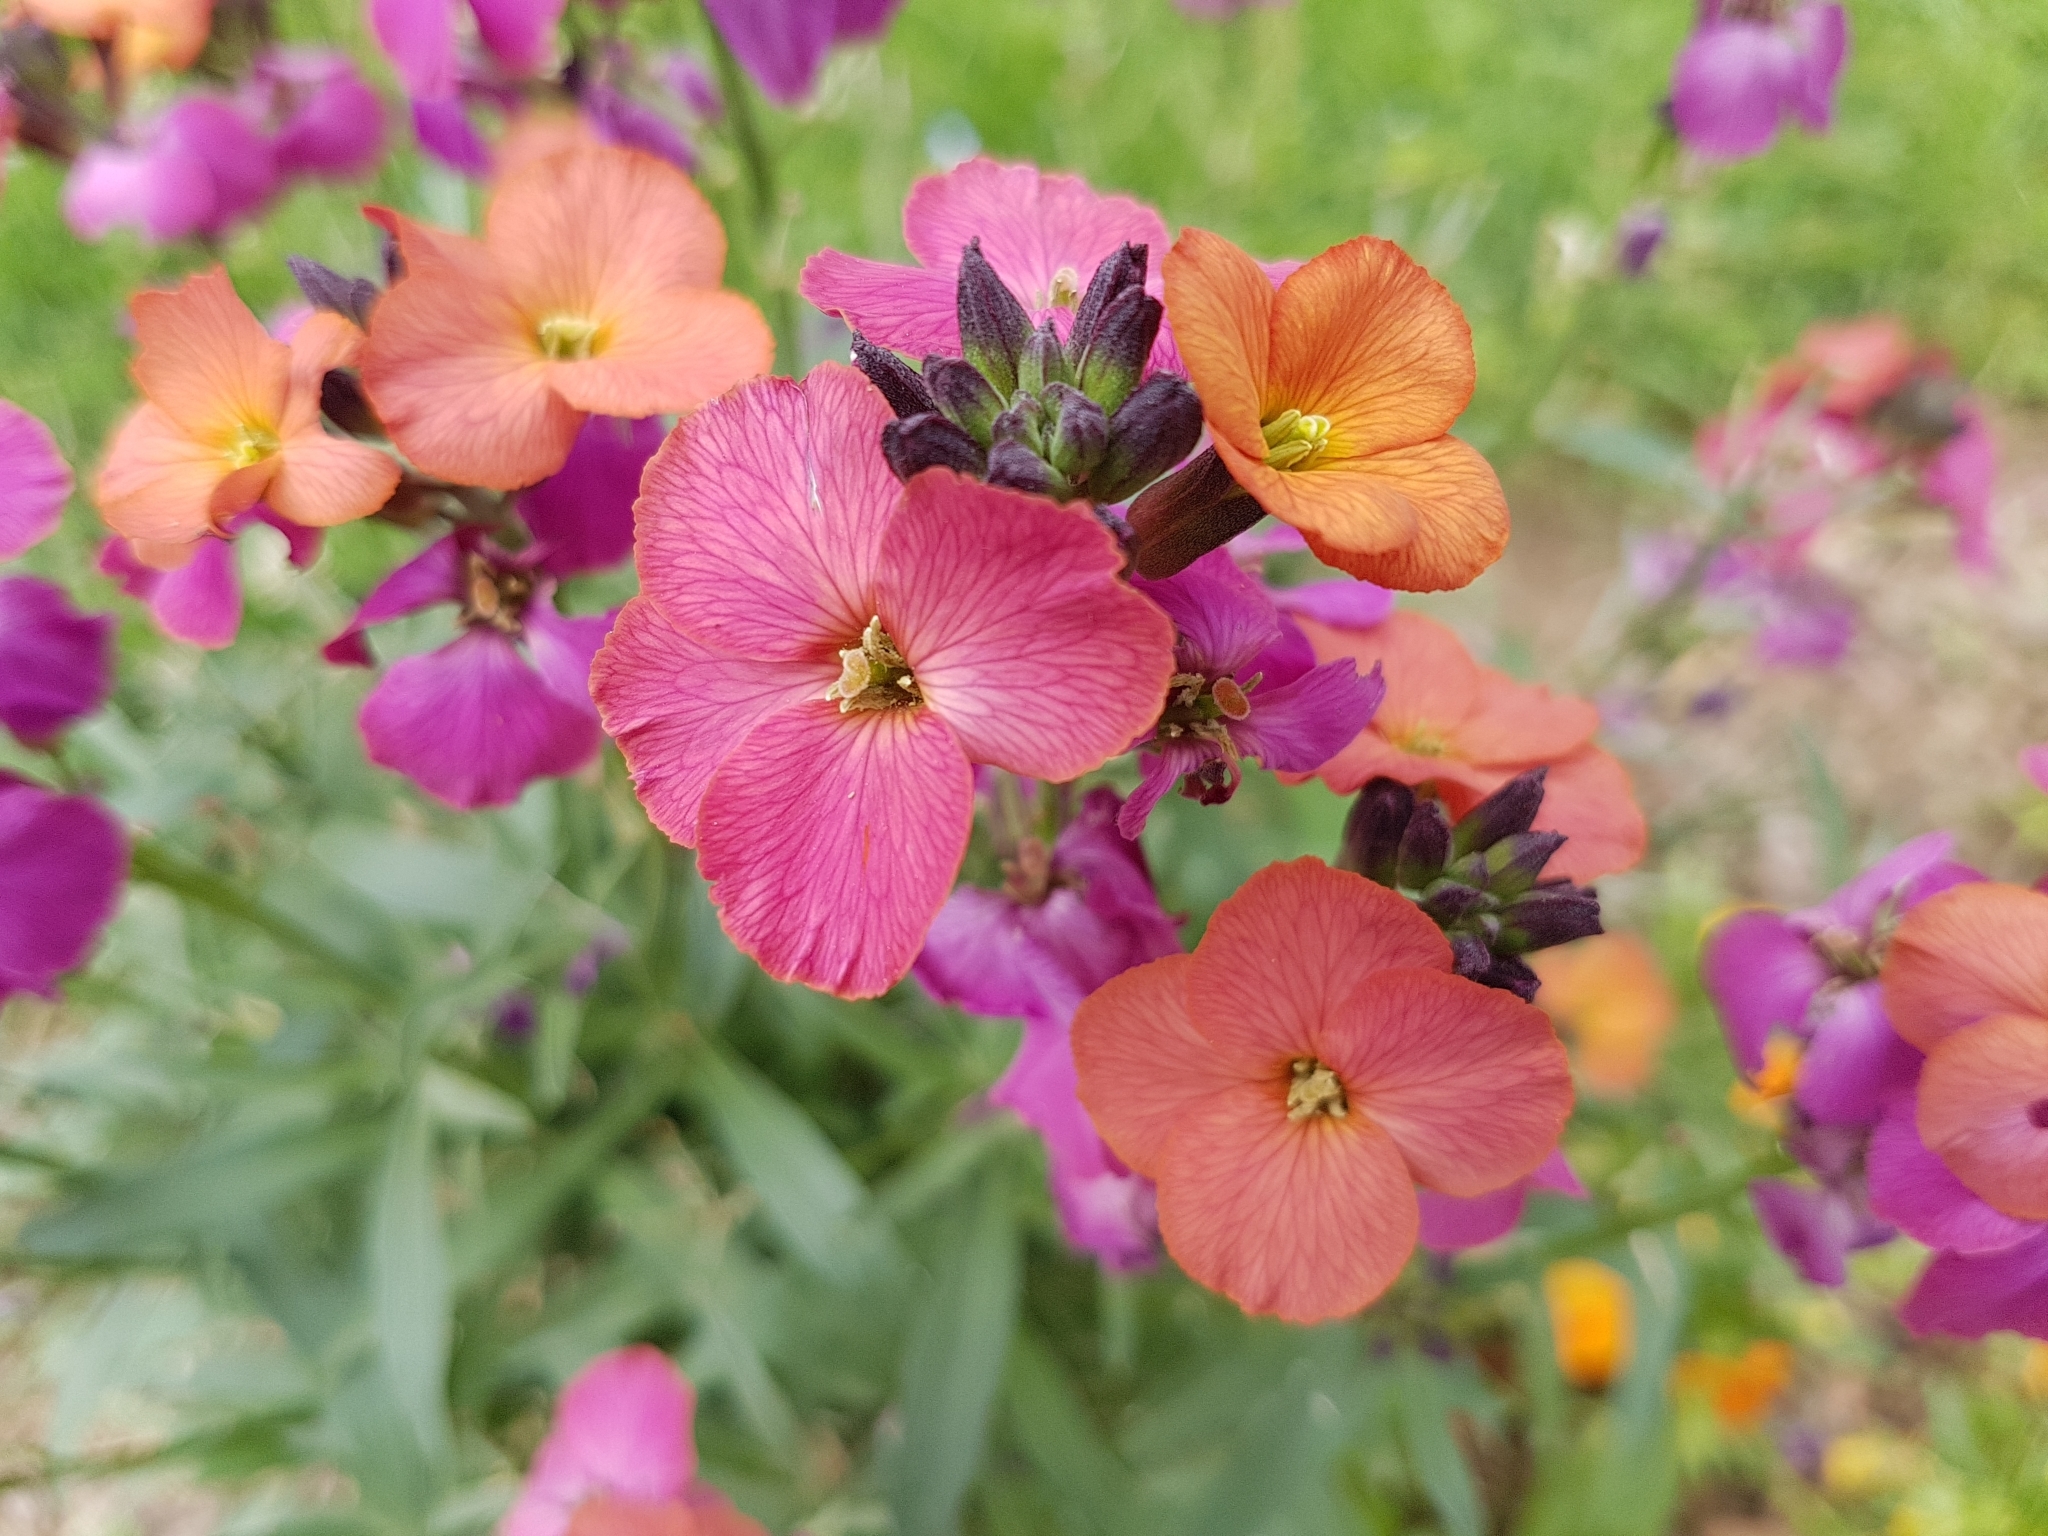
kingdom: Plantae
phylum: Tracheophyta
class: Magnoliopsida
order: Brassicales
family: Brassicaceae
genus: Erysimum
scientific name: Erysimum cheiri
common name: Wallflower
